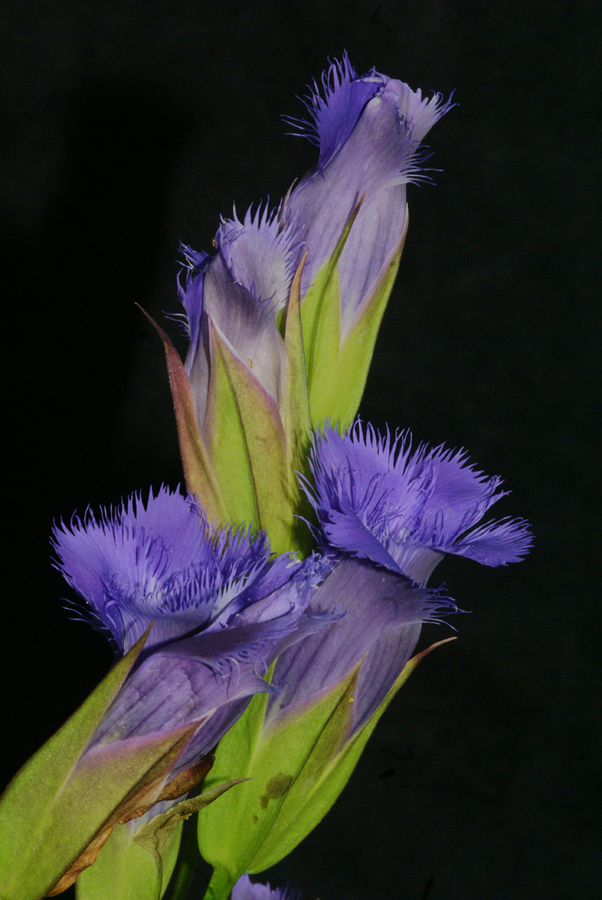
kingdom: Plantae
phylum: Tracheophyta
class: Magnoliopsida
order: Gentianales
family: Gentianaceae
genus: Gentianopsis
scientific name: Gentianopsis crinita
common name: Fringed-gentian
